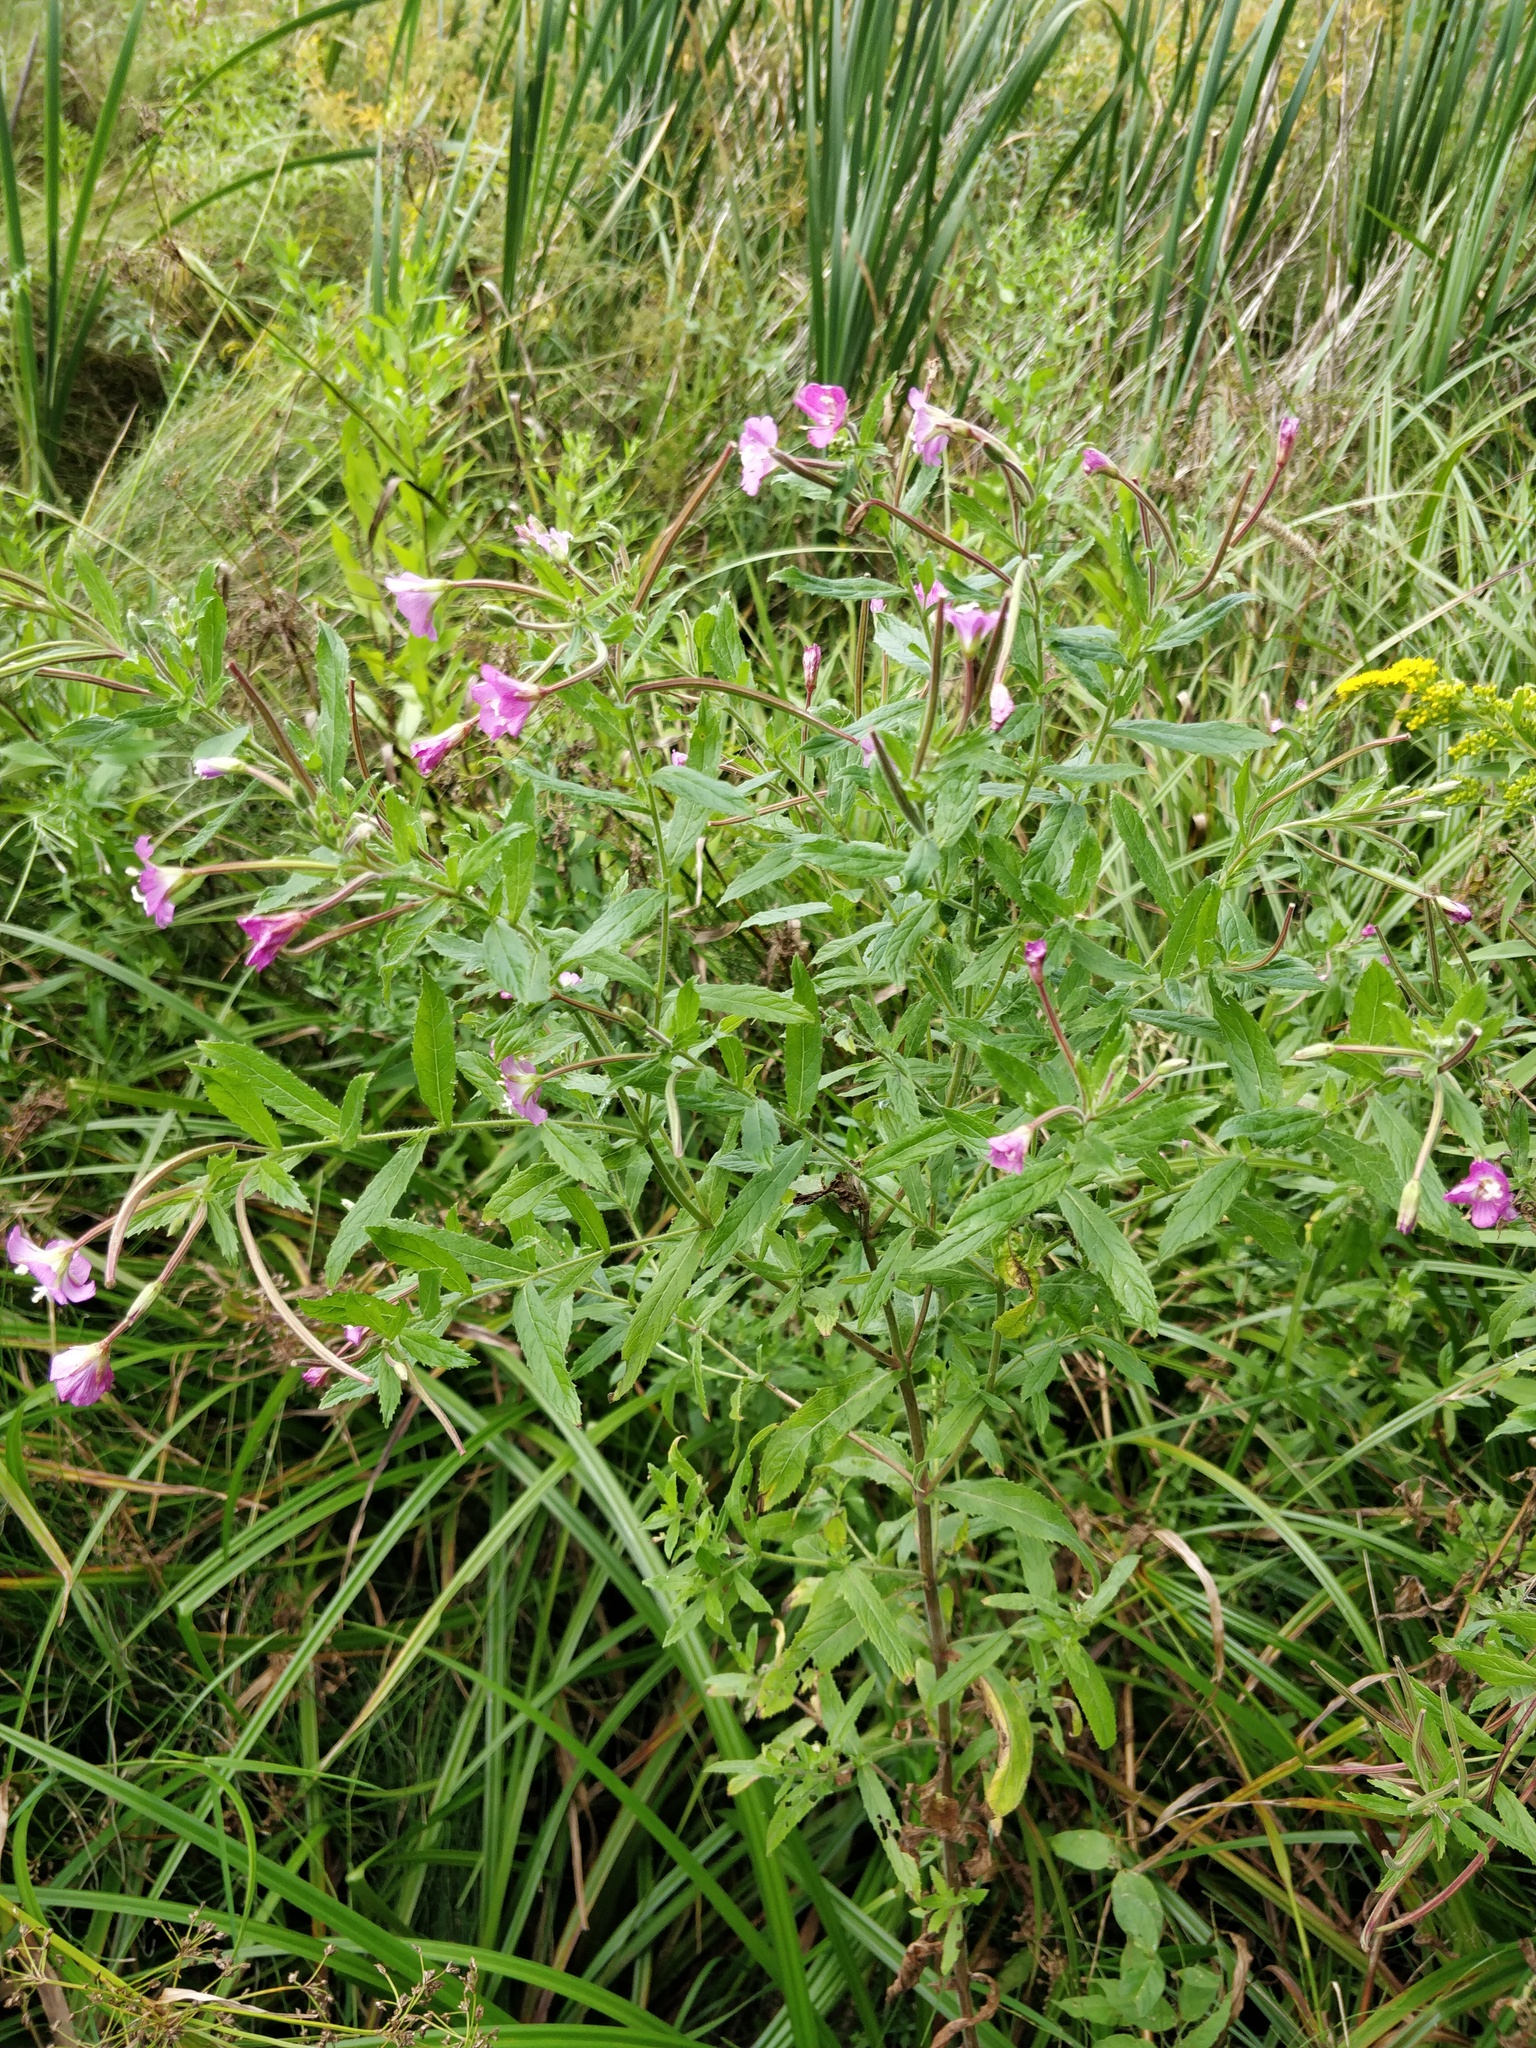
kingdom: Plantae
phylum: Tracheophyta
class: Magnoliopsida
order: Myrtales
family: Onagraceae
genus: Epilobium
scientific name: Epilobium hirsutum
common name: Great willowherb
